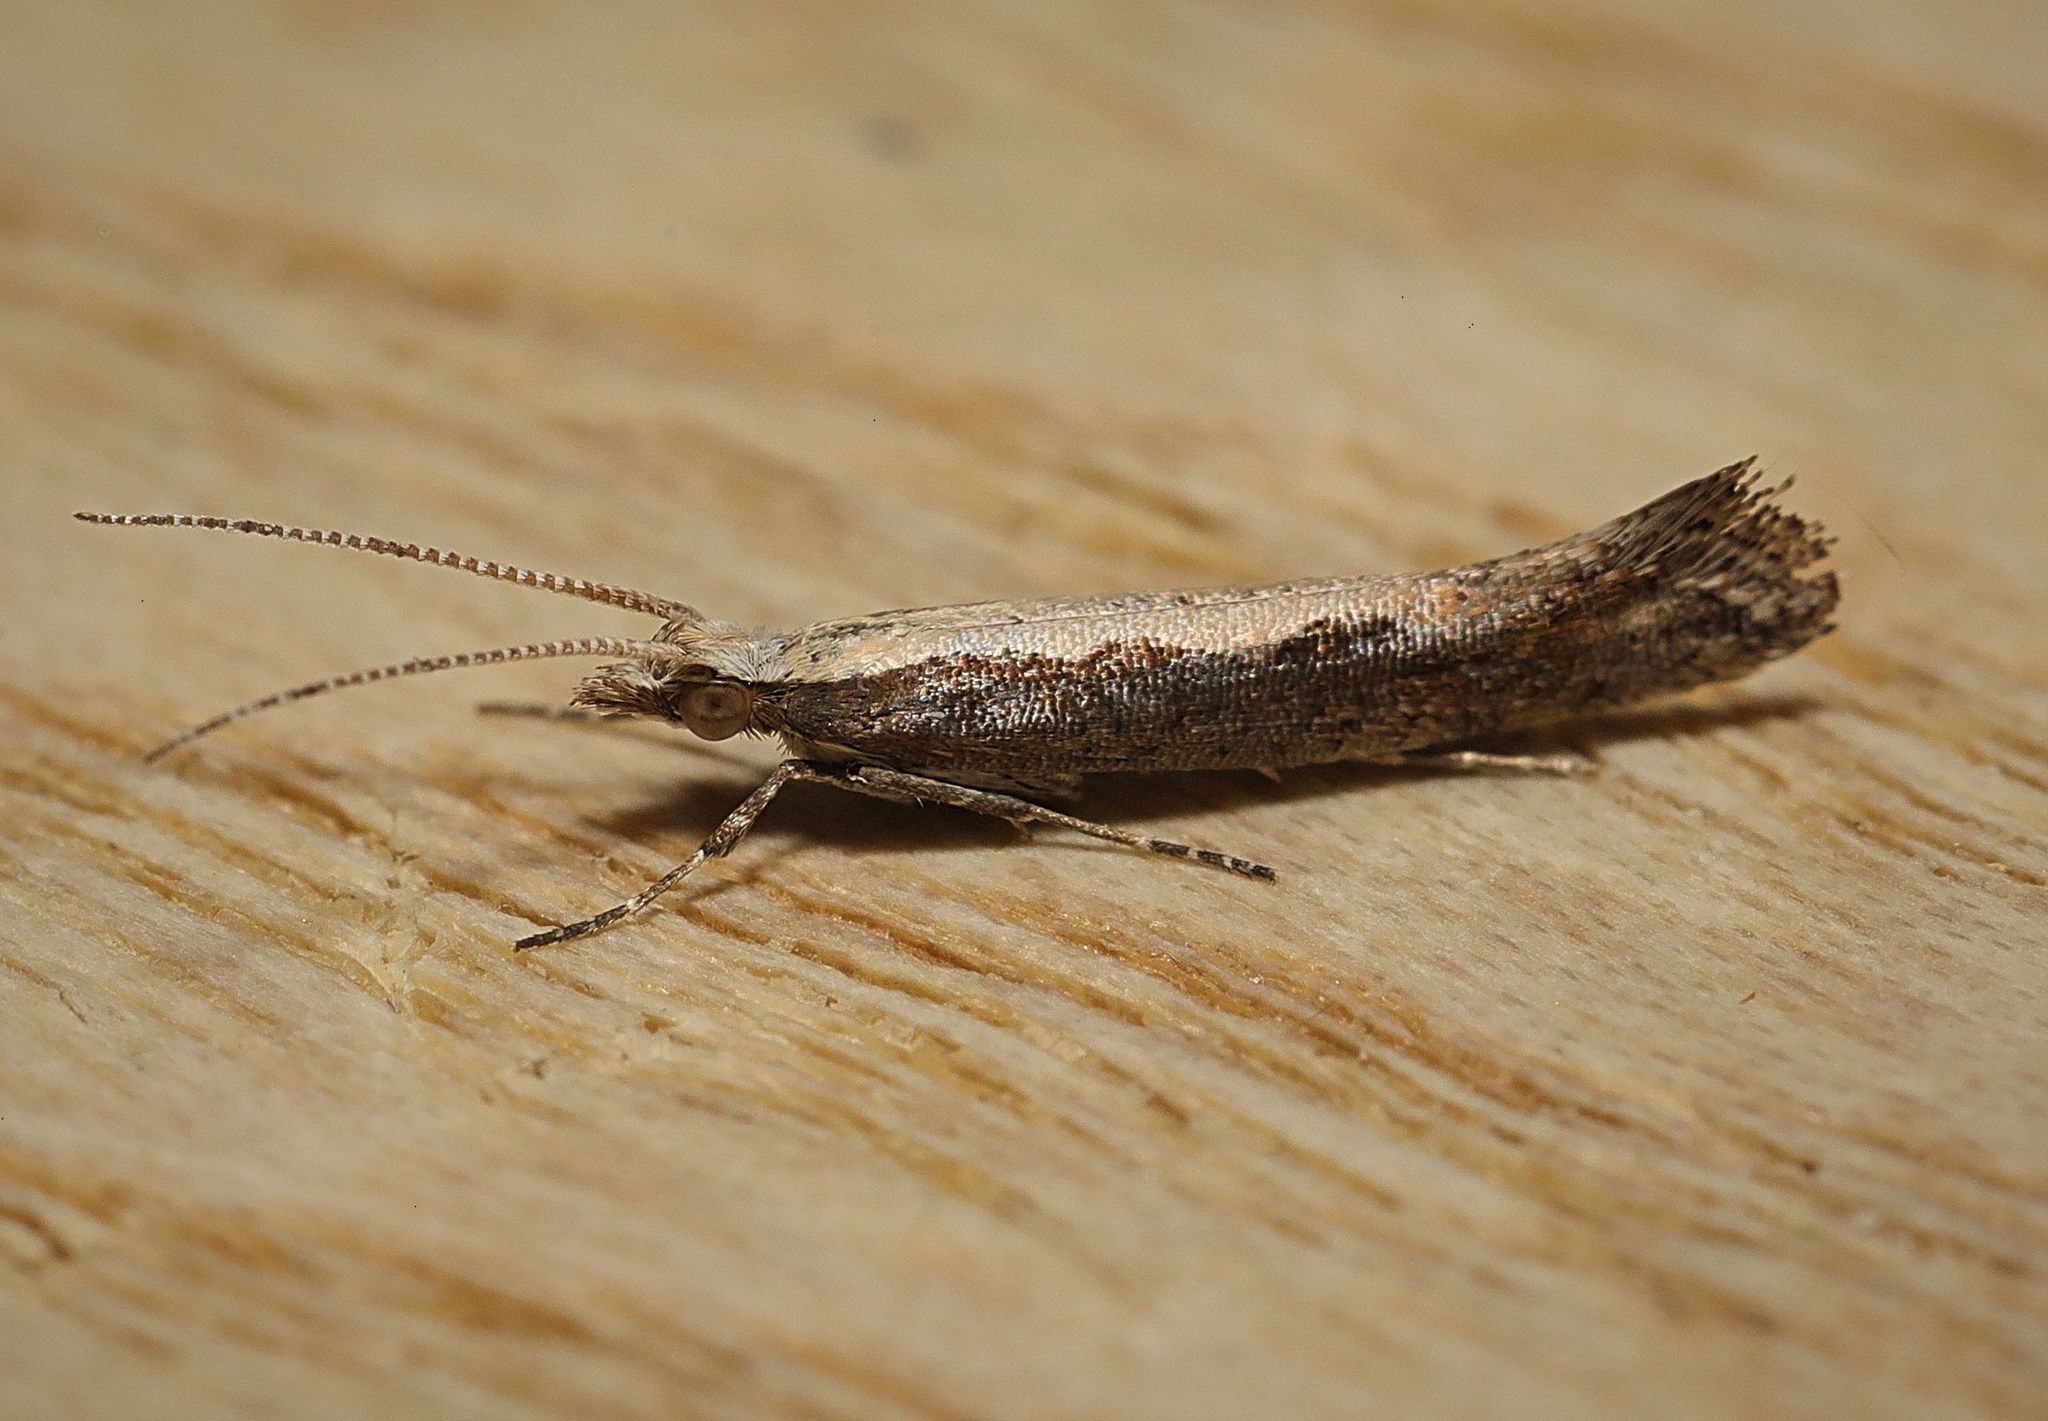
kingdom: Animalia
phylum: Arthropoda
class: Insecta
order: Lepidoptera
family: Plutellidae
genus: Plutella
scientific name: Plutella xylostella
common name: Diamond-back moth
